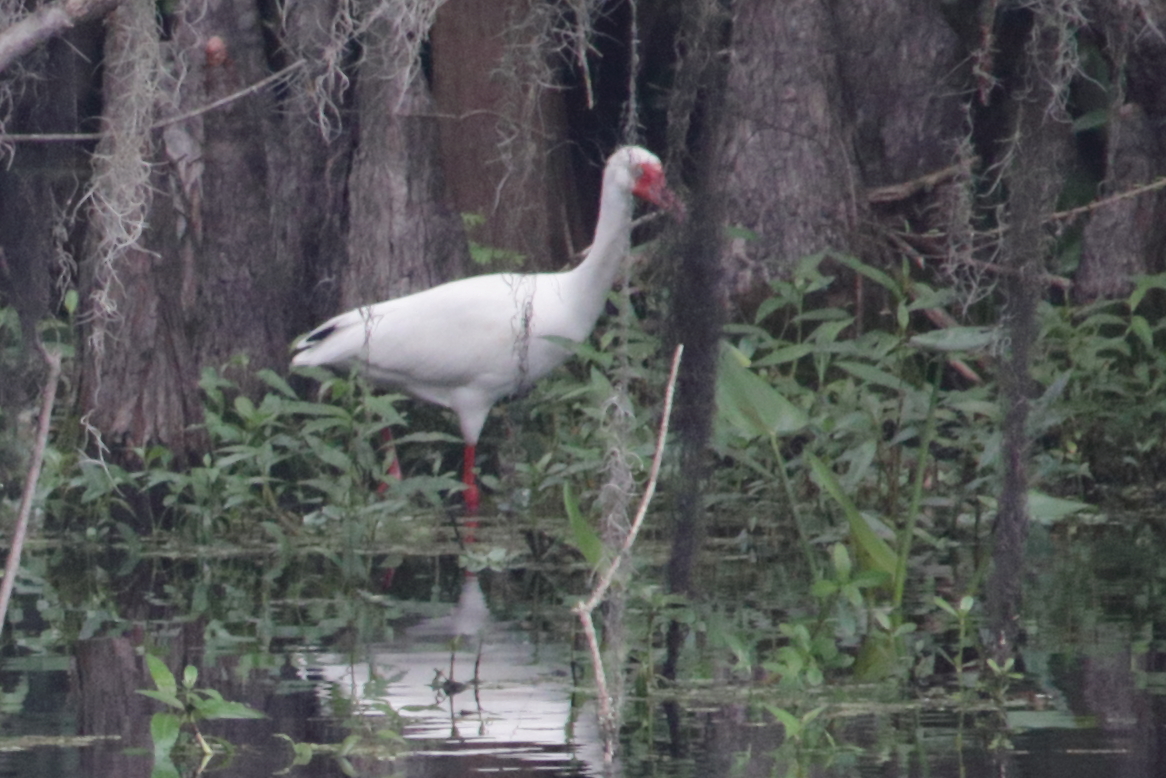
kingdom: Animalia
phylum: Chordata
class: Aves
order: Pelecaniformes
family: Threskiornithidae
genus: Eudocimus
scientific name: Eudocimus albus
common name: White ibis
